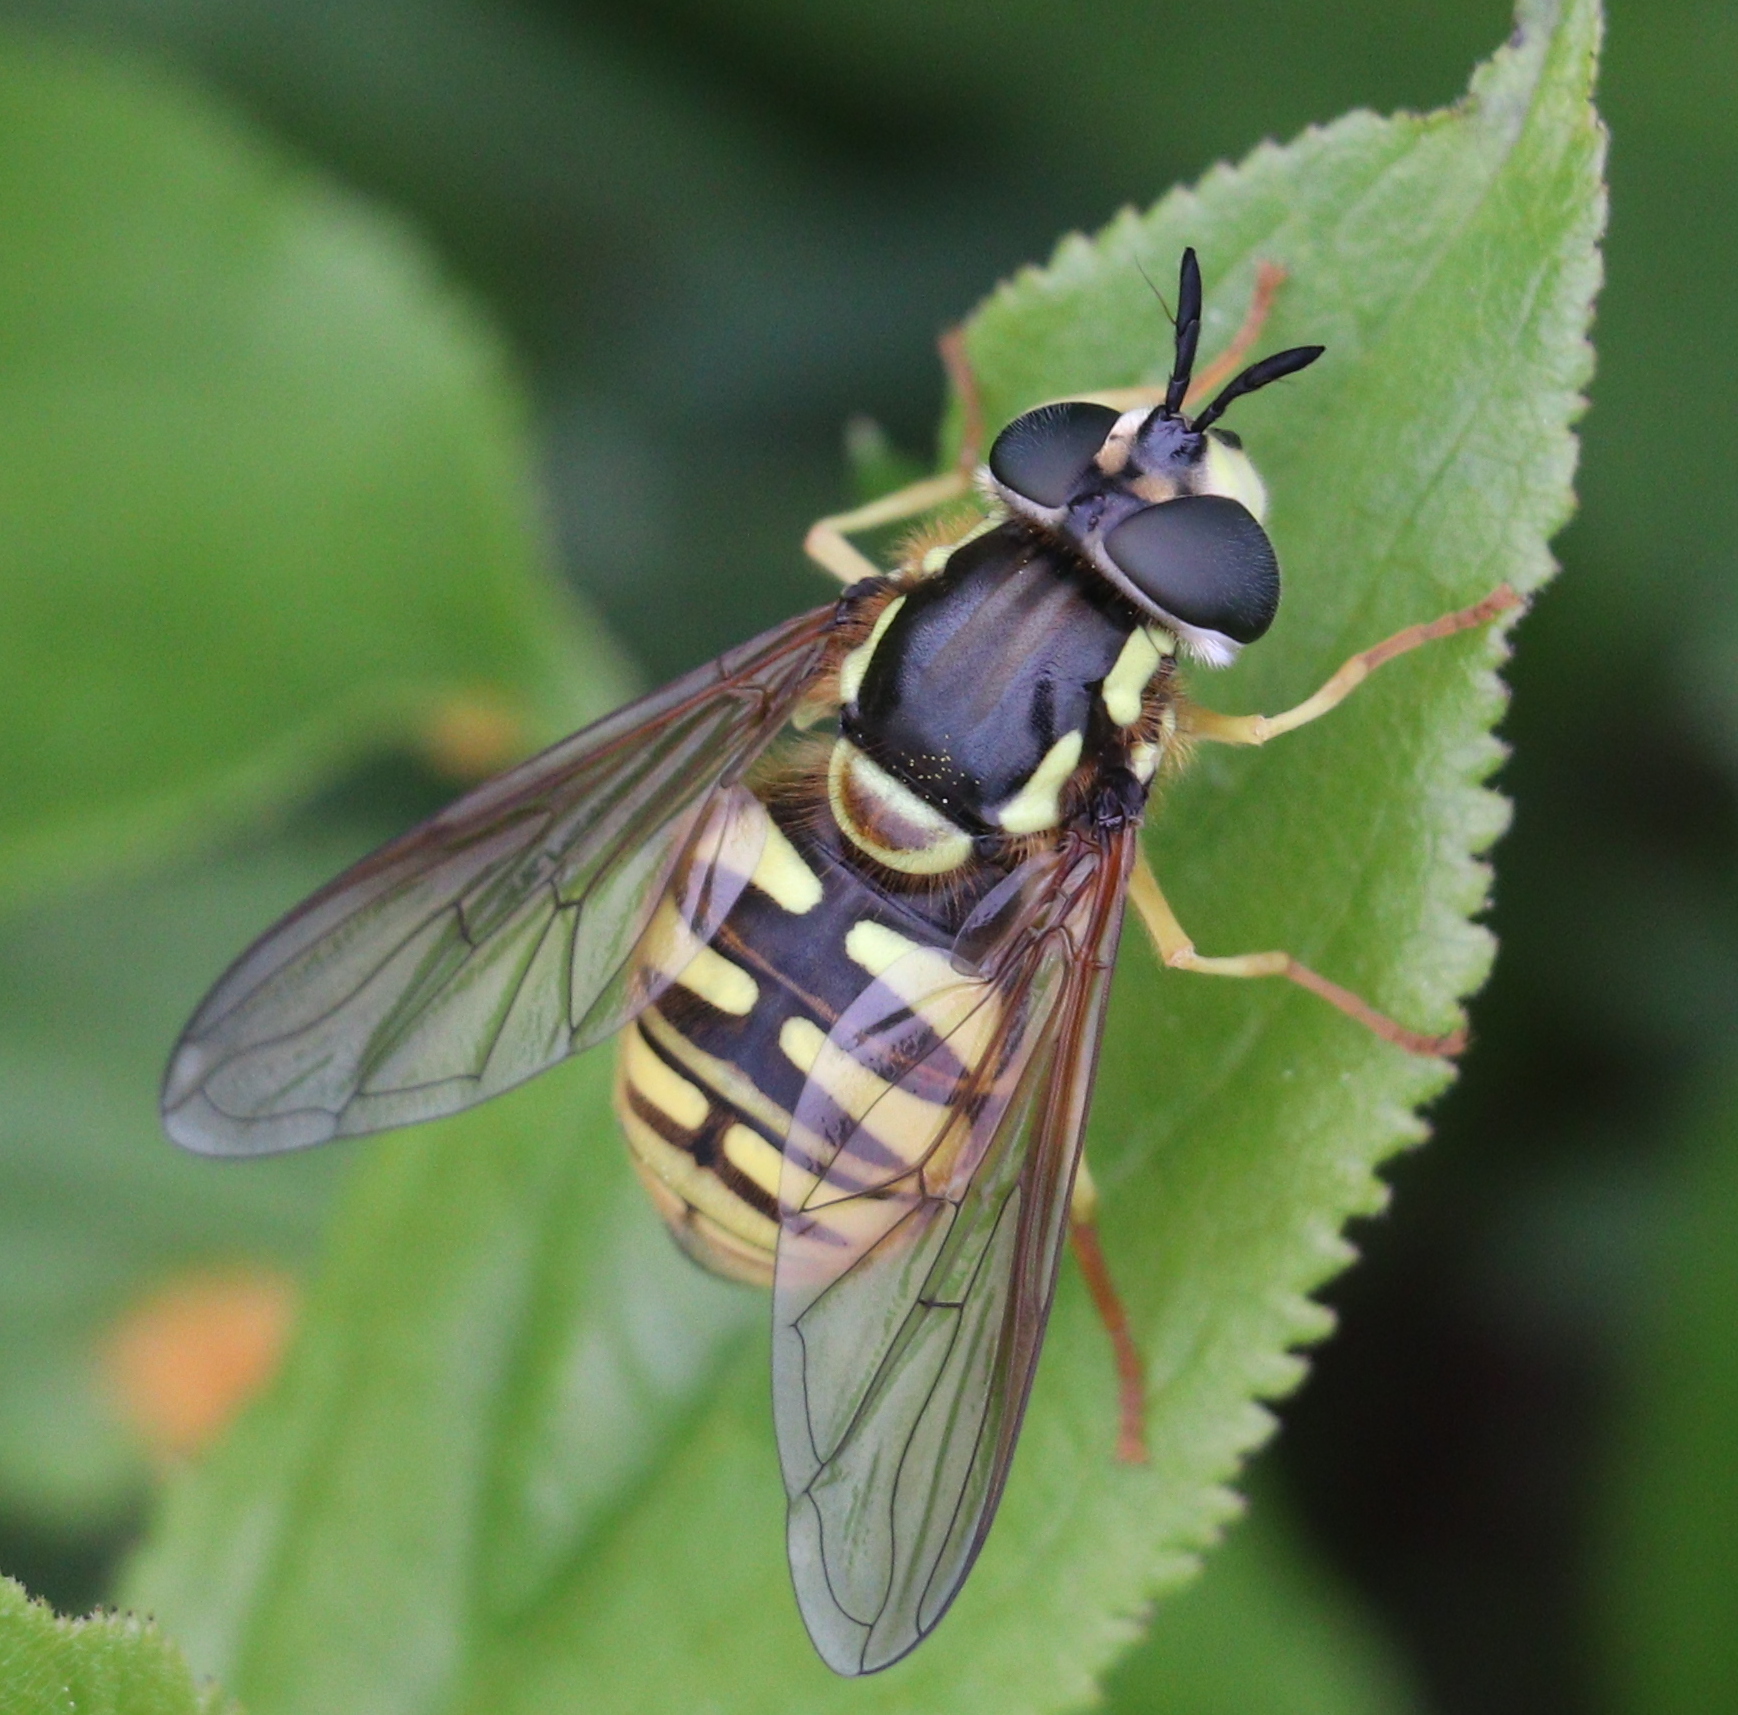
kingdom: Animalia
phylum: Arthropoda
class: Insecta
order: Diptera
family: Syrphidae
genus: Chrysotoxum
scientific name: Chrysotoxum cautum
